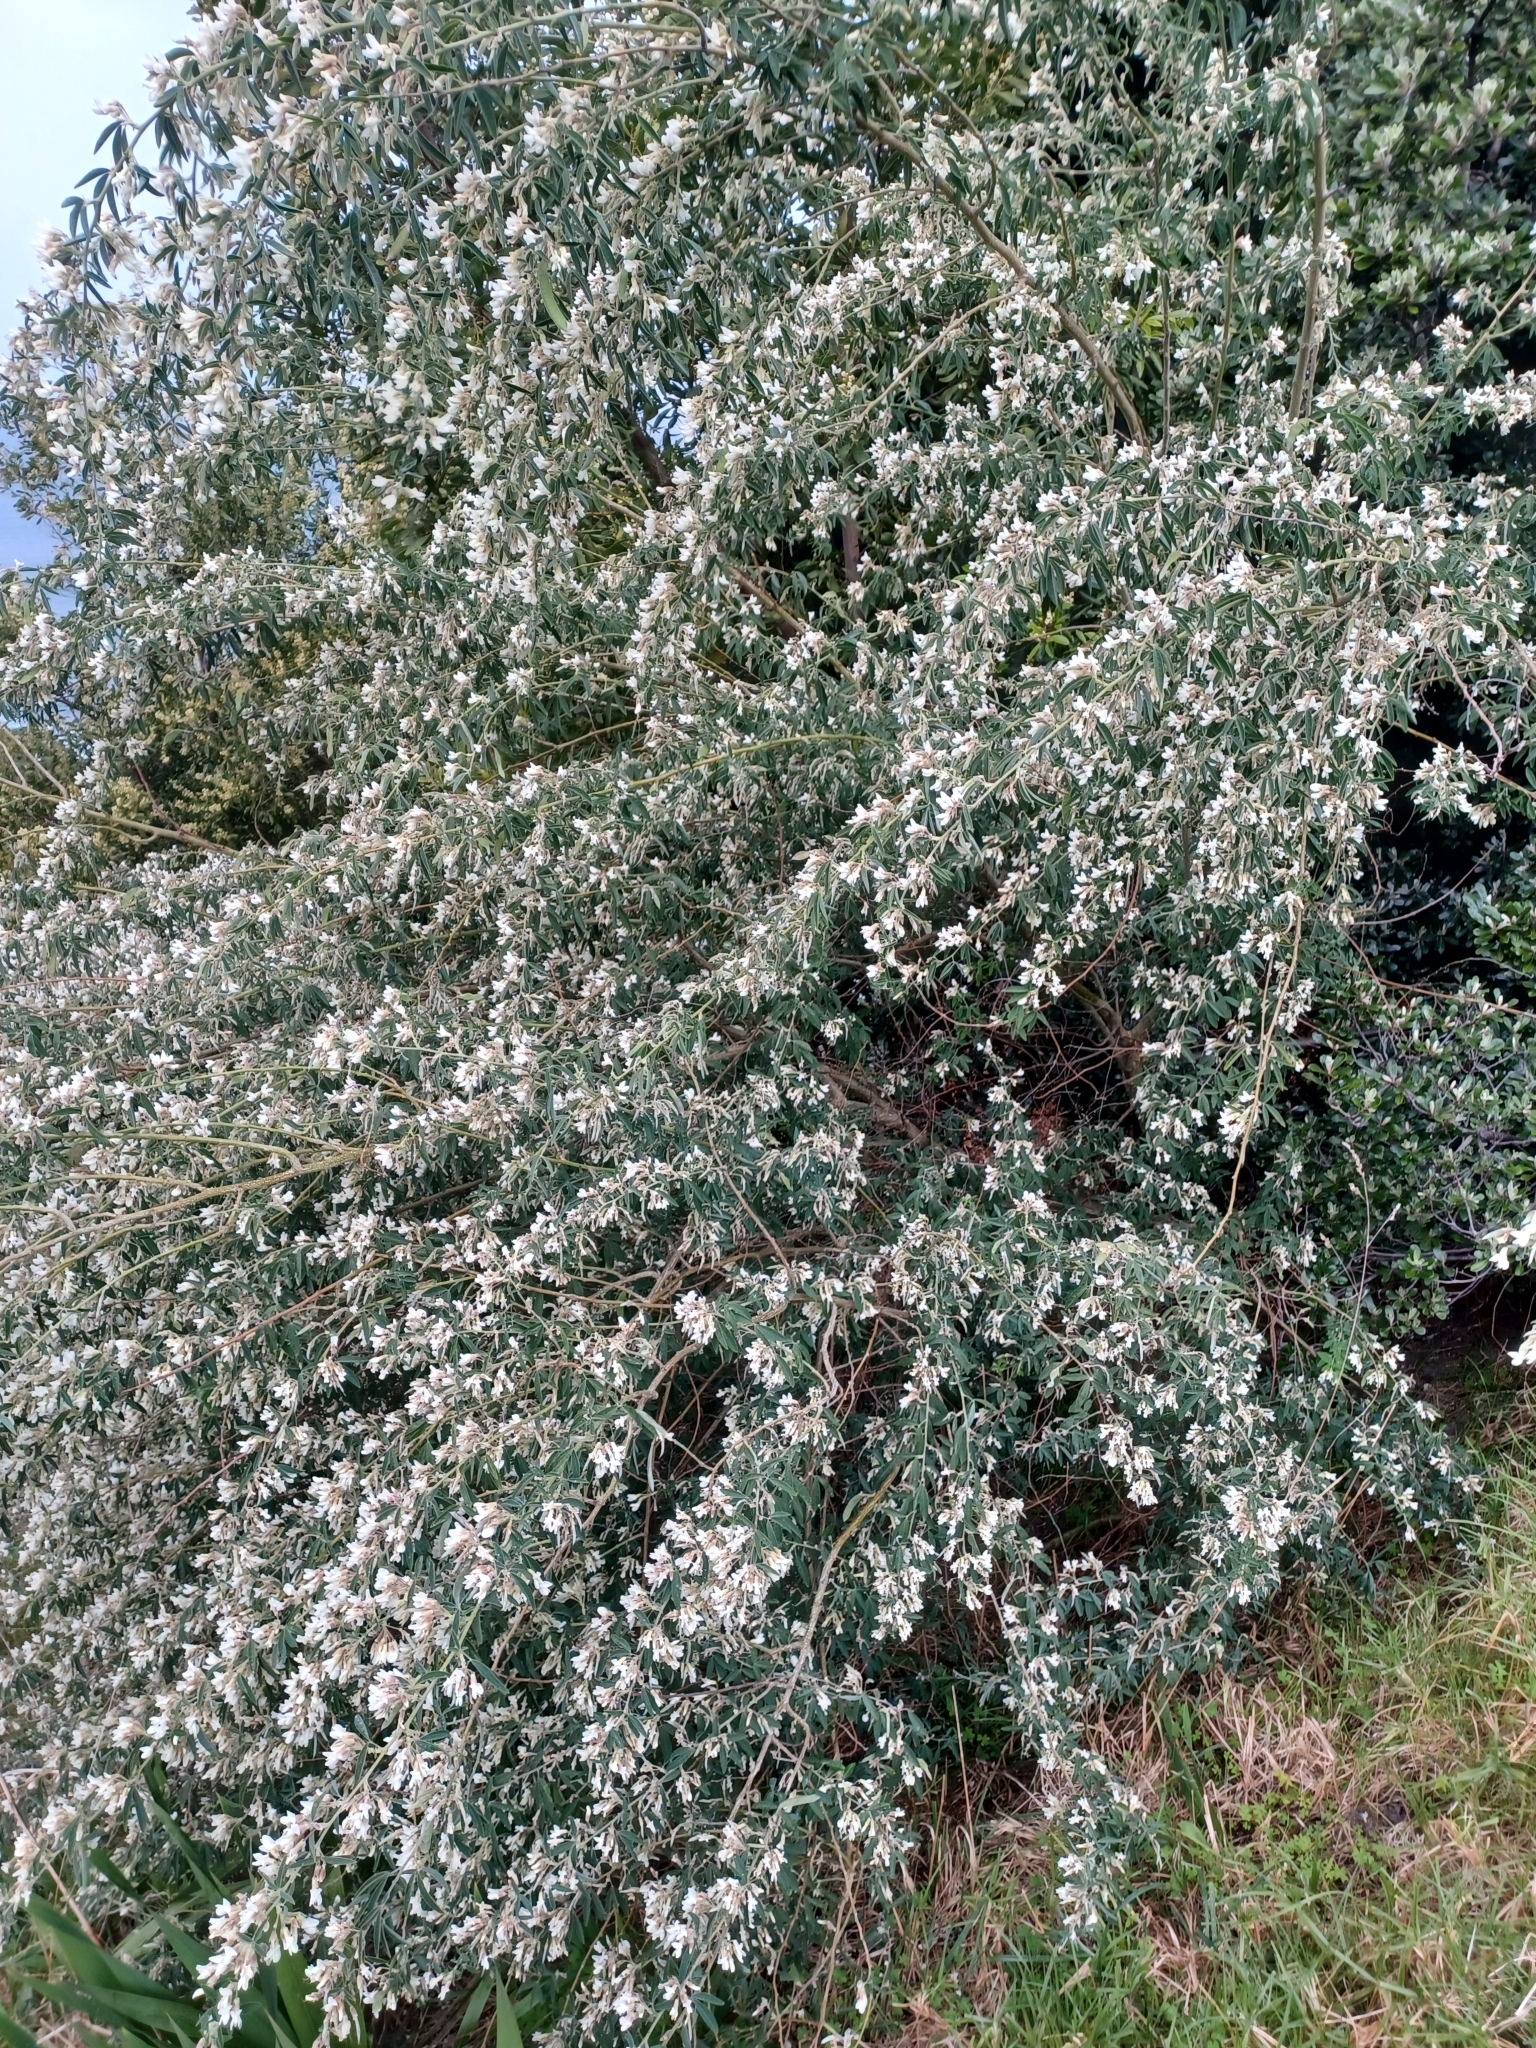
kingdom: Plantae
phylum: Tracheophyta
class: Magnoliopsida
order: Fabales
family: Fabaceae
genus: Chamaecytisus
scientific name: Chamaecytisus prolifer
